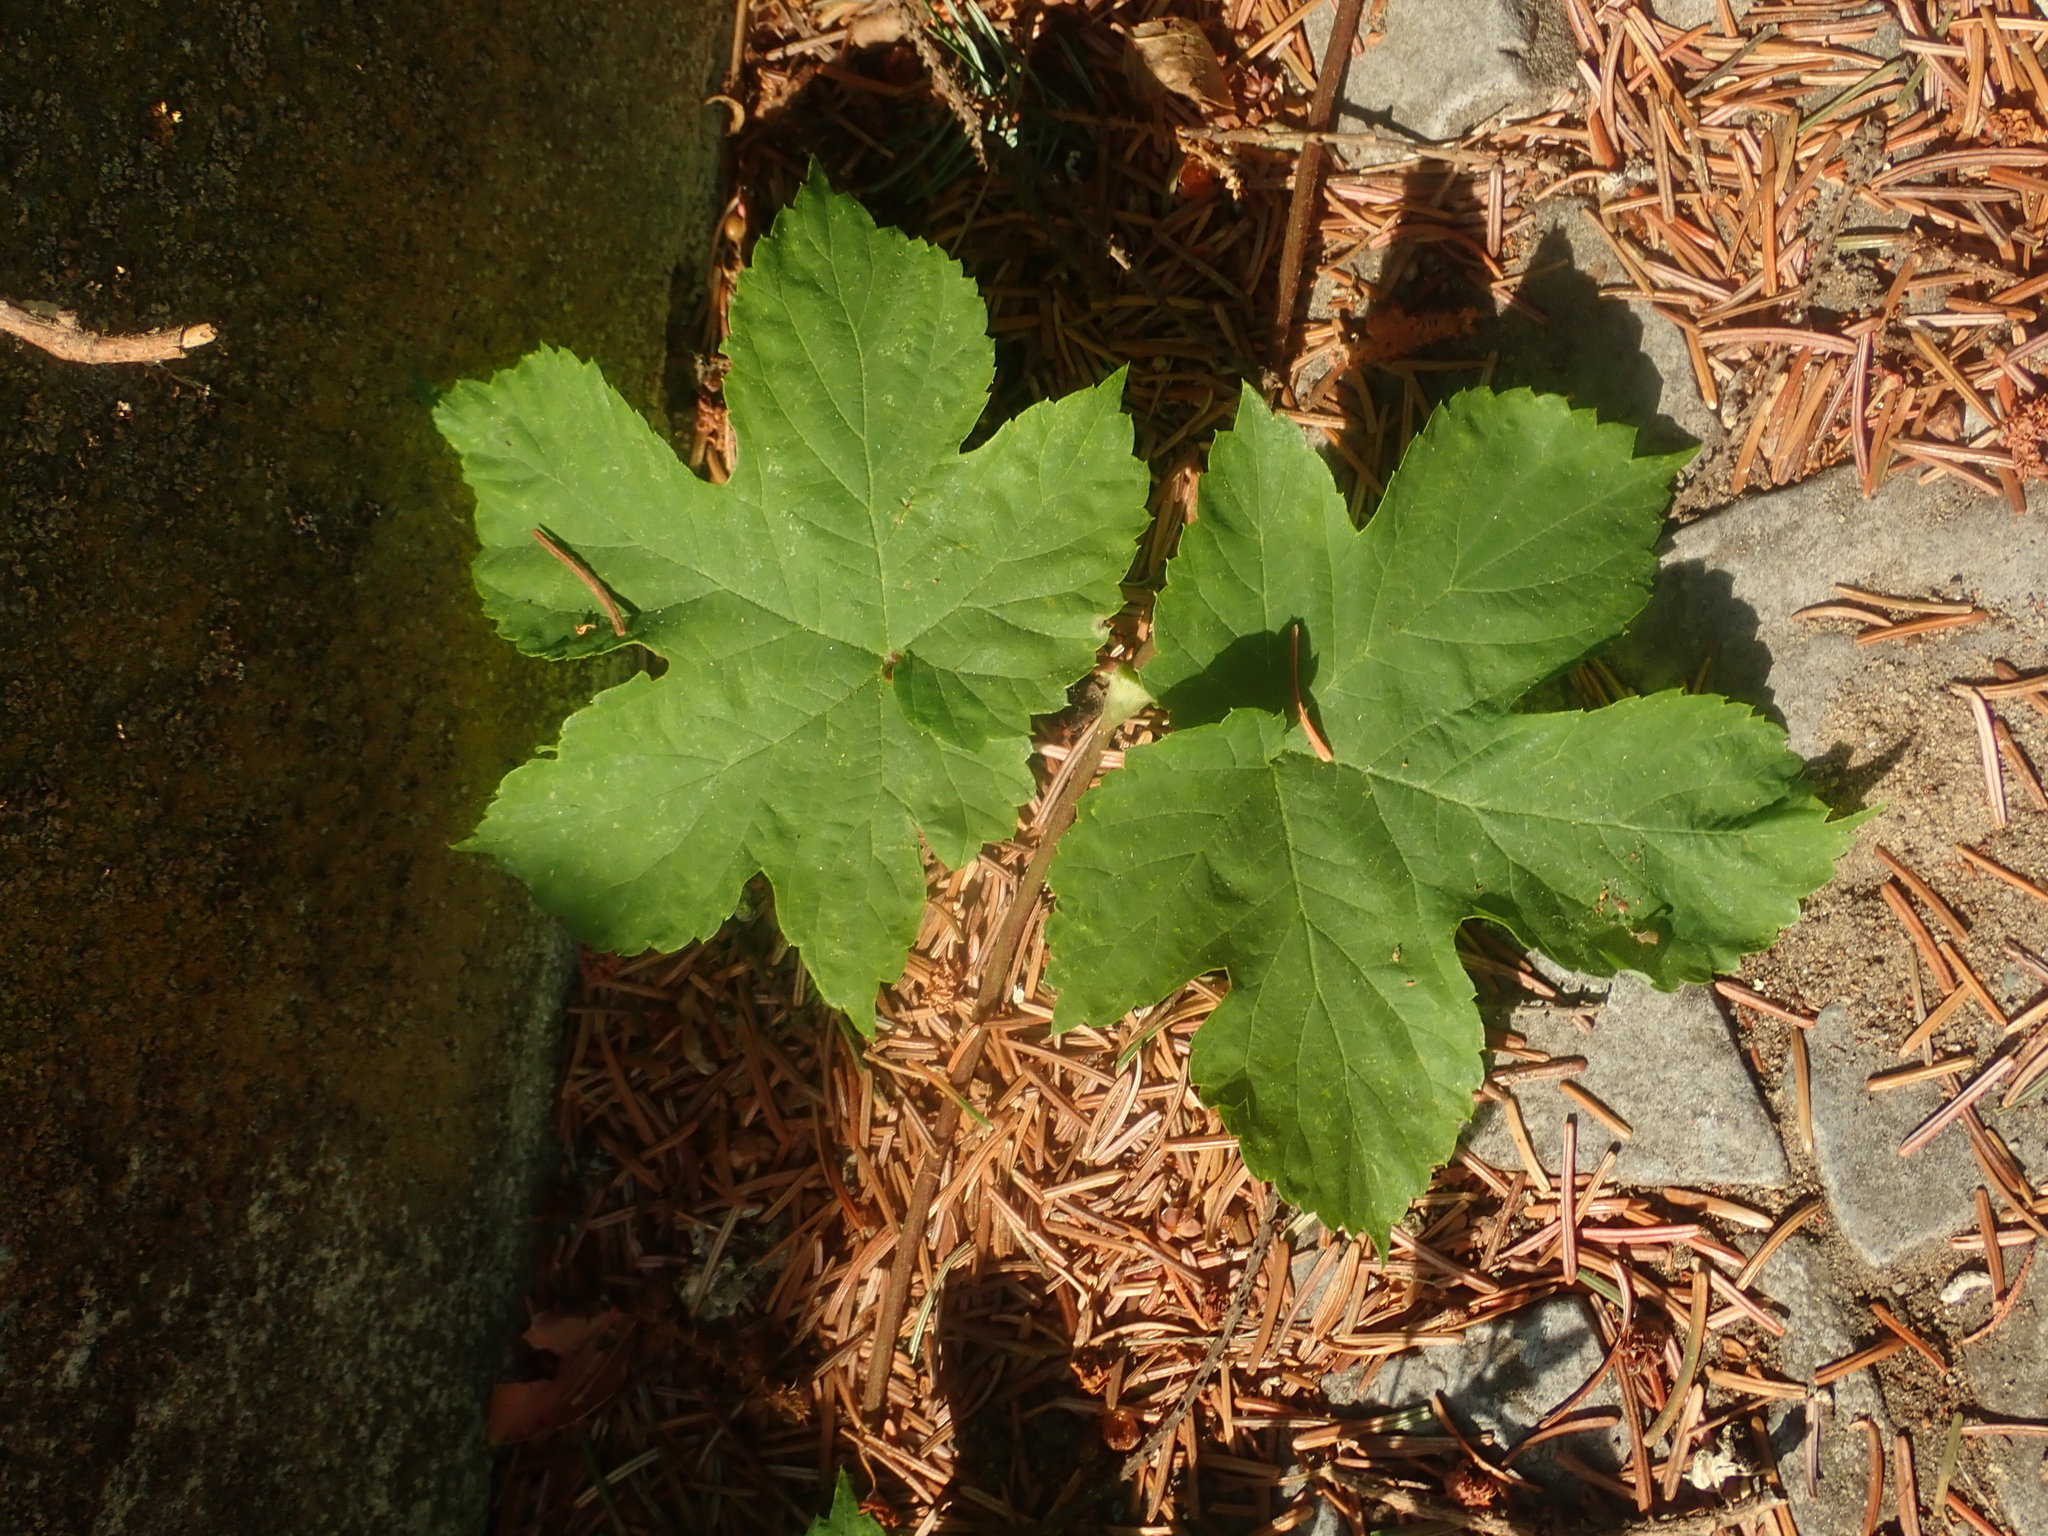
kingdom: Plantae
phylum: Tracheophyta
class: Magnoliopsida
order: Rosales
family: Cannabaceae
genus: Humulus
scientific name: Humulus lupulus
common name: Hop
